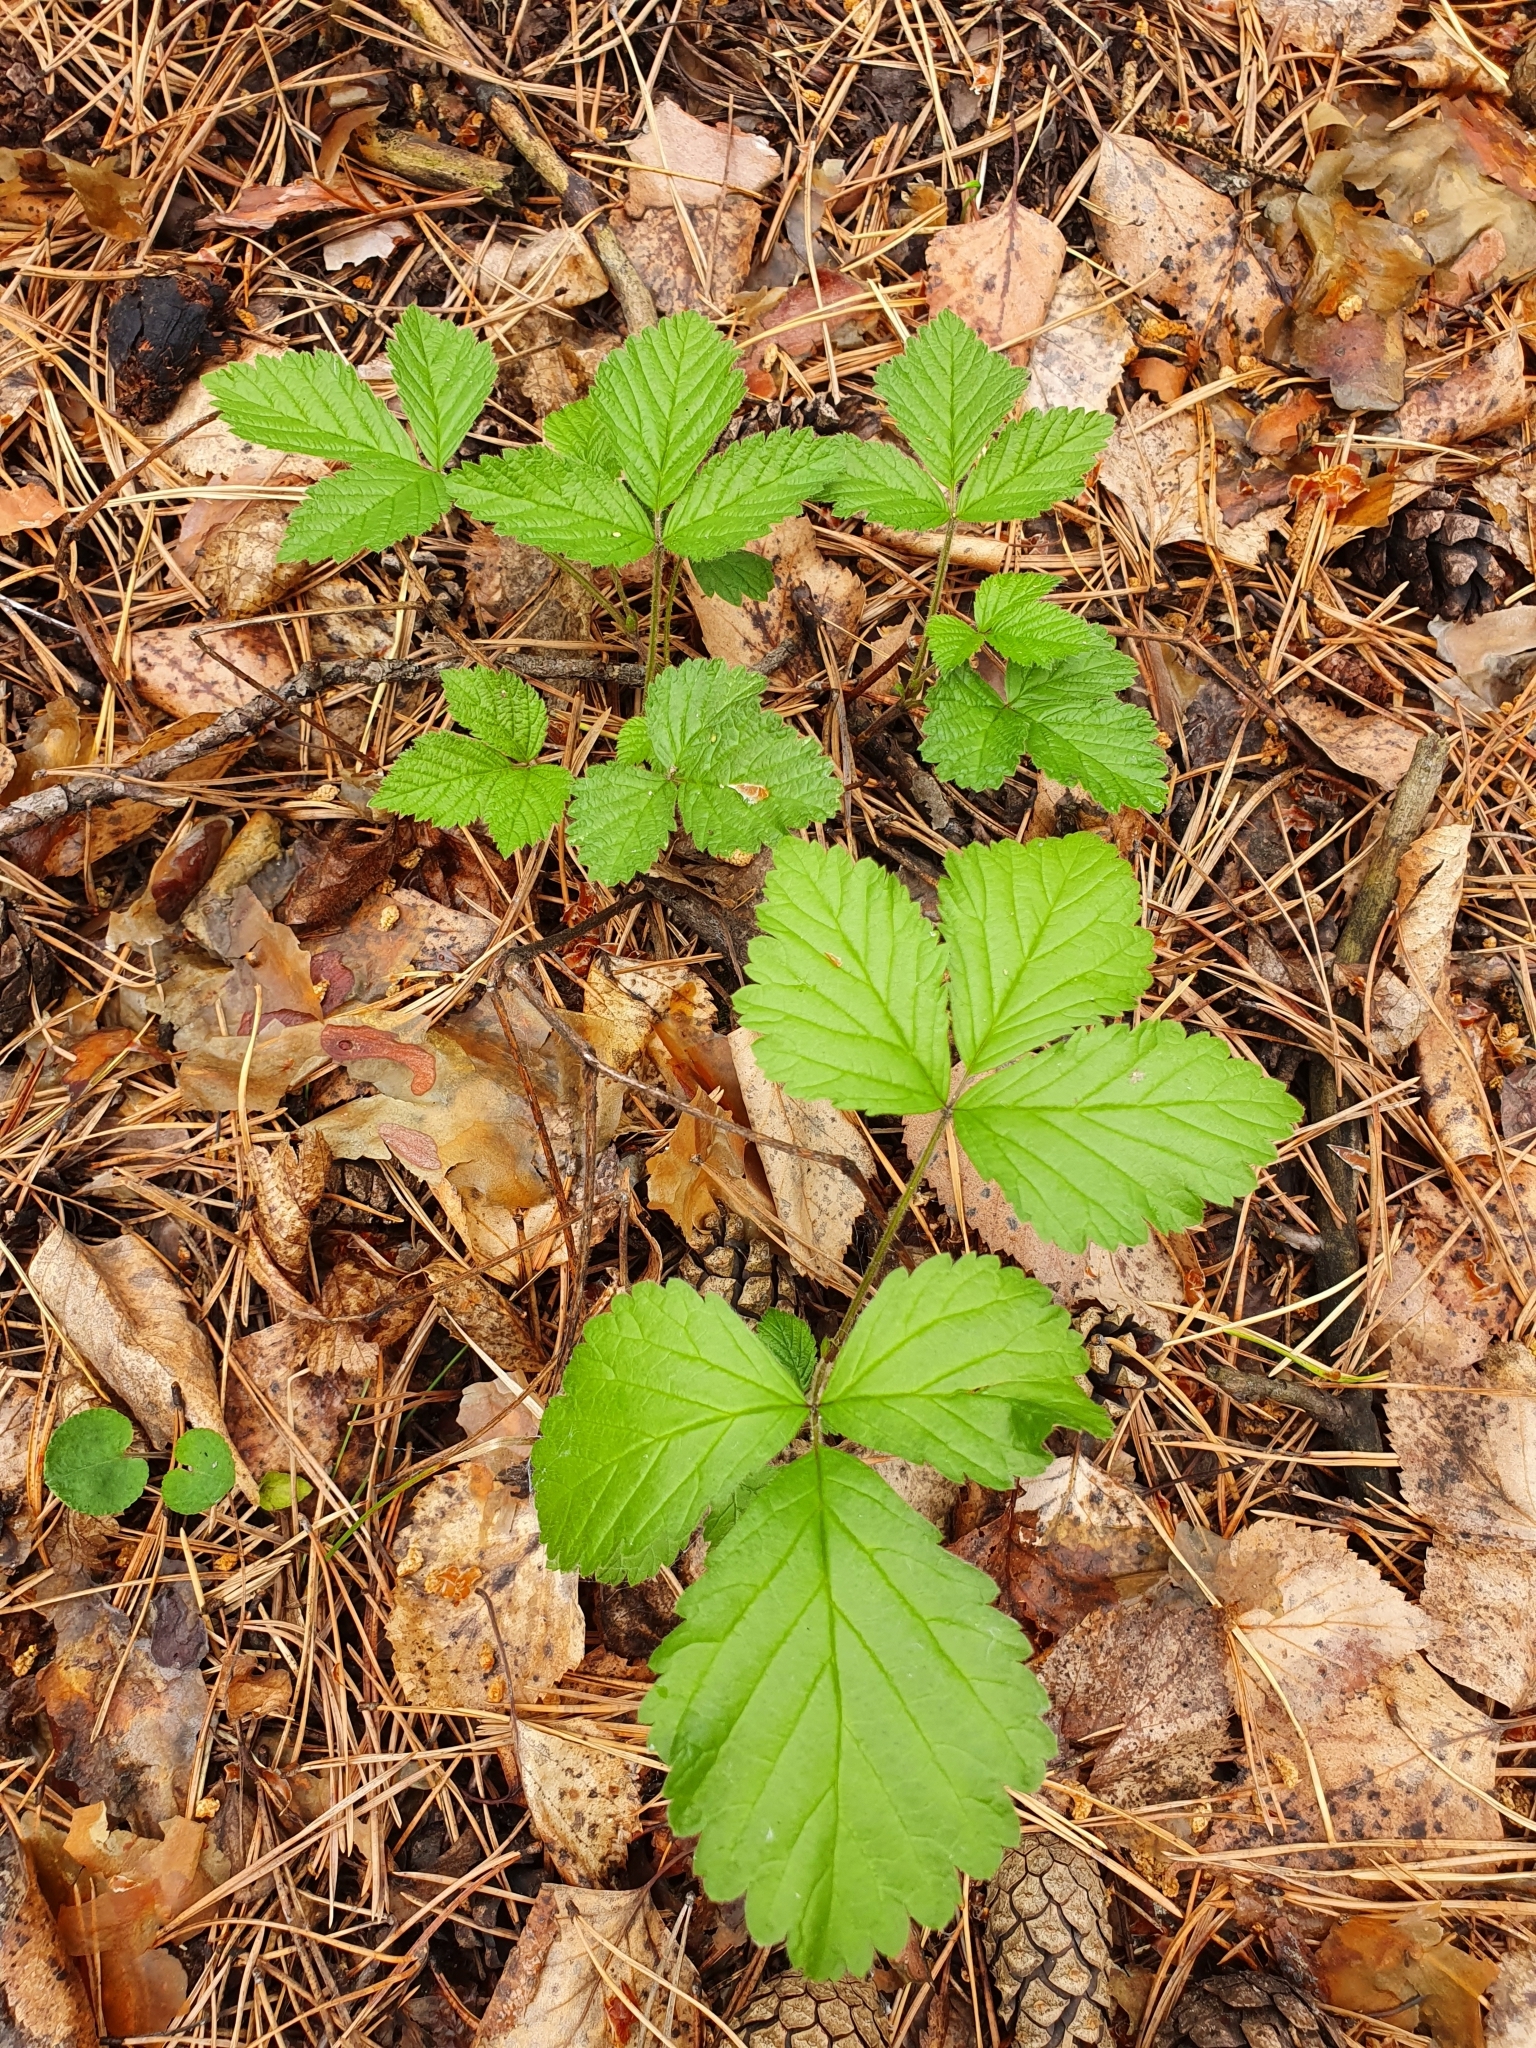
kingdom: Plantae
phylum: Tracheophyta
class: Magnoliopsida
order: Rosales
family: Rosaceae
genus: Rubus
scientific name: Rubus saxatilis
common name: Stone bramble
